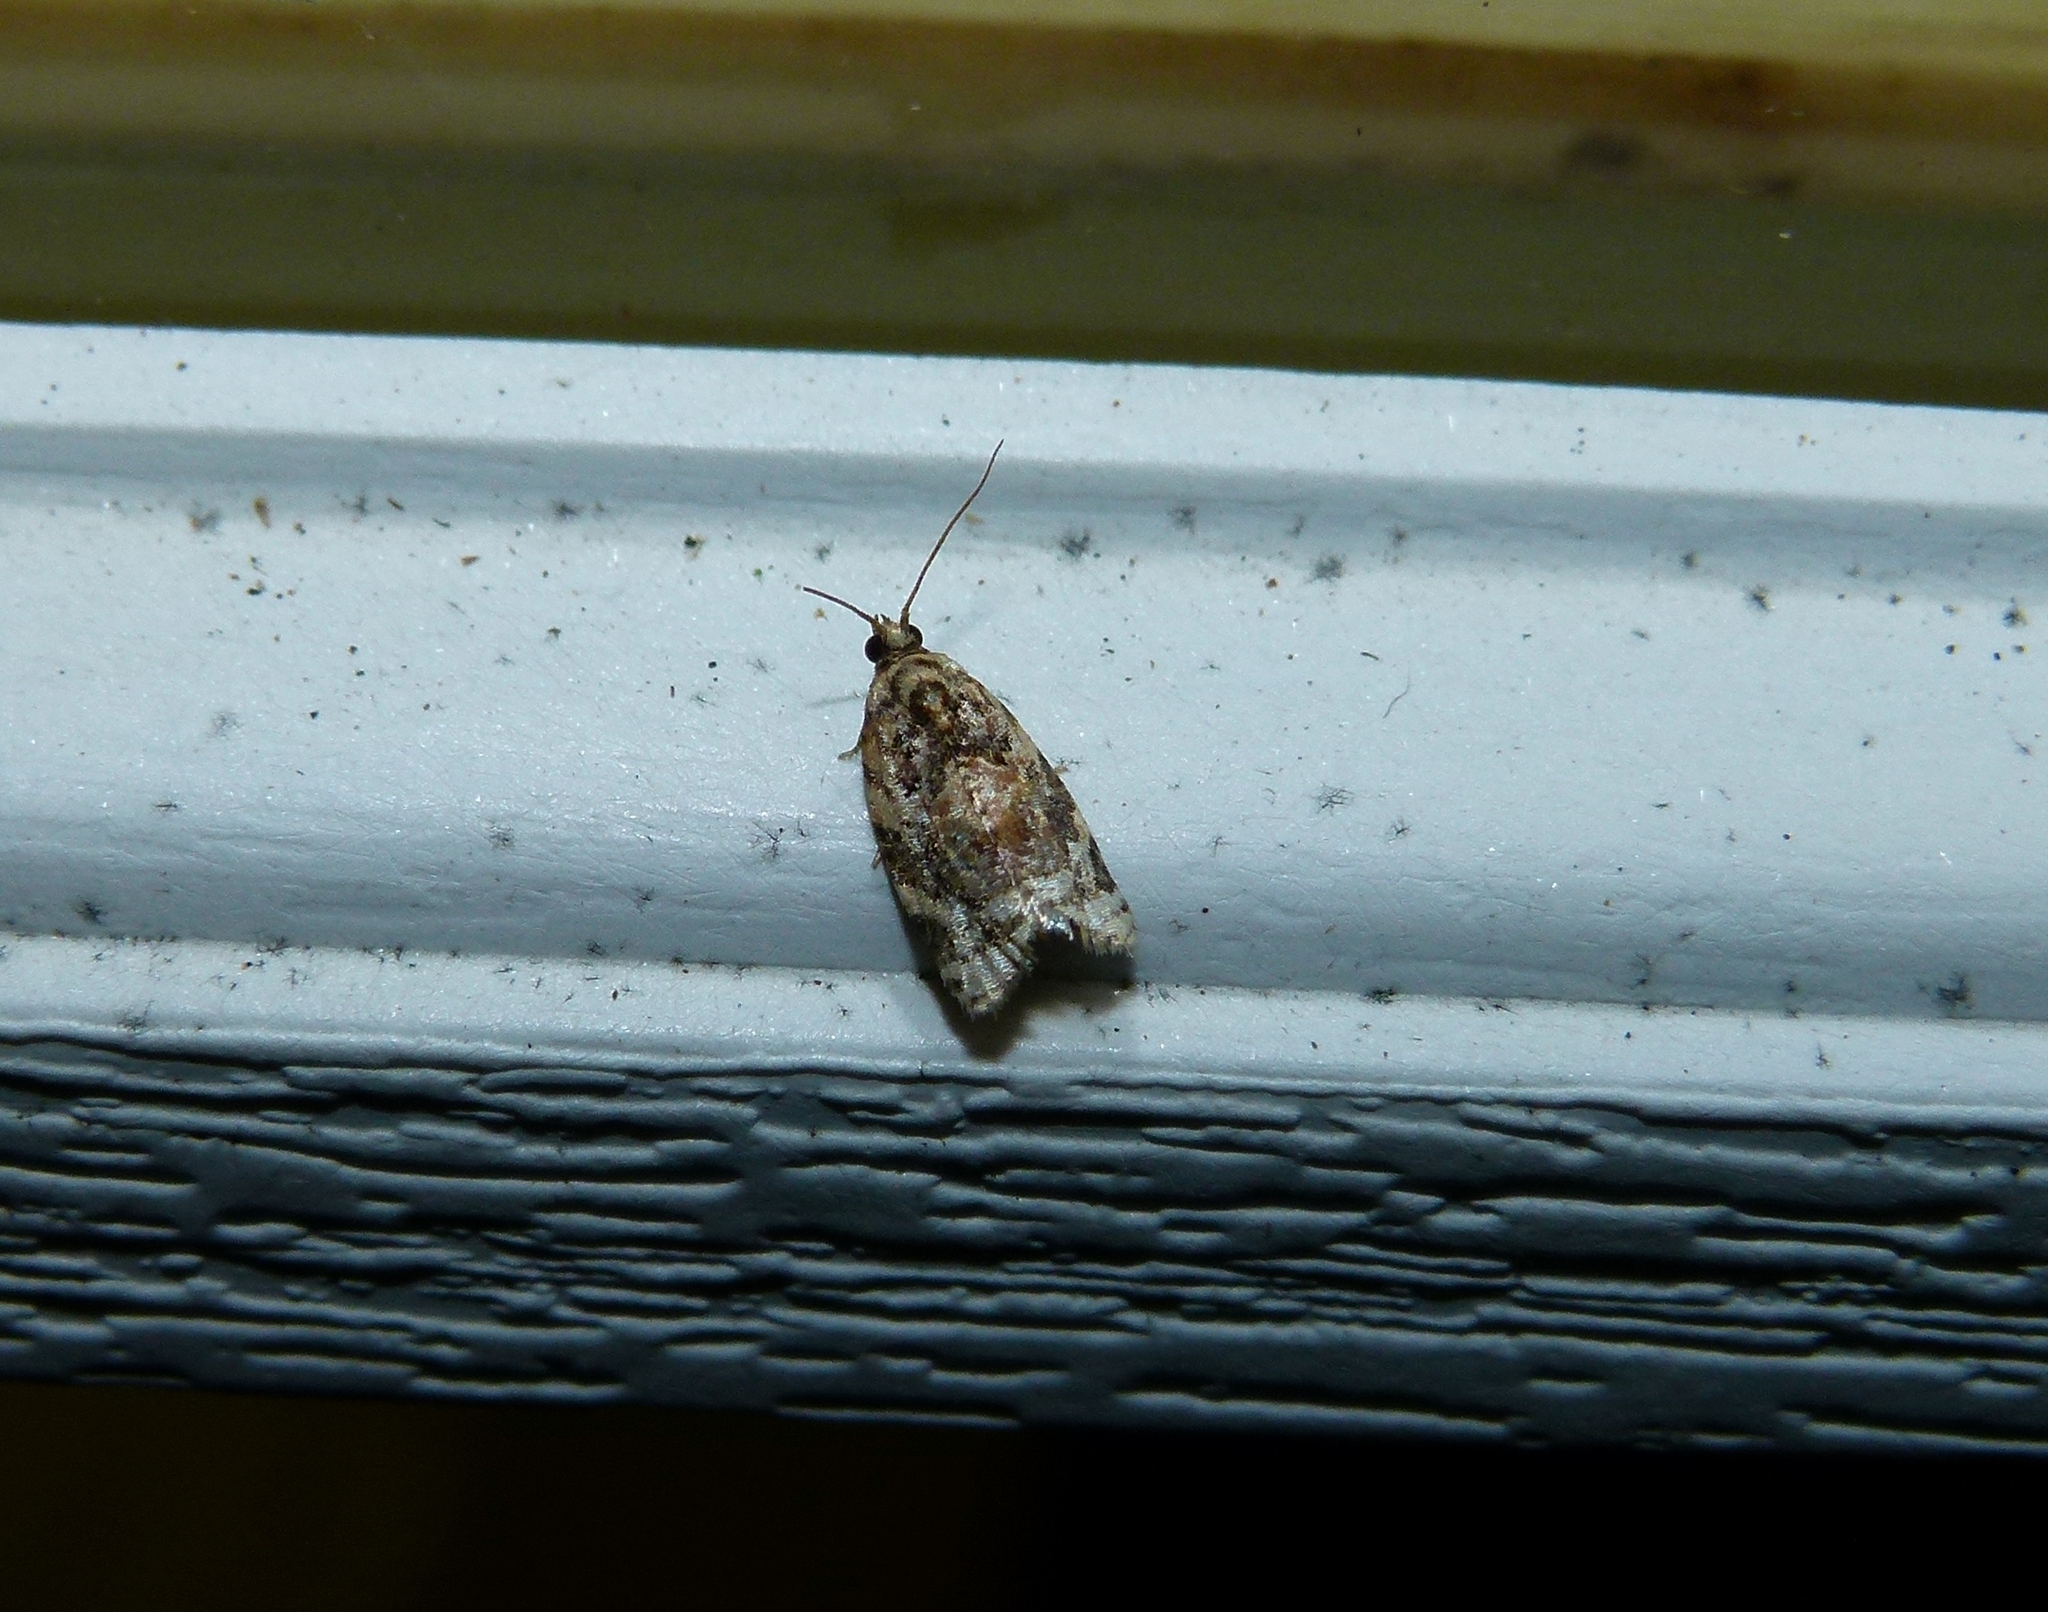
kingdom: Animalia
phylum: Arthropoda
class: Insecta
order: Lepidoptera
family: Tortricidae
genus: Argyrotaenia
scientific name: Argyrotaenia velutinana
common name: Red-banded leafroller moth
